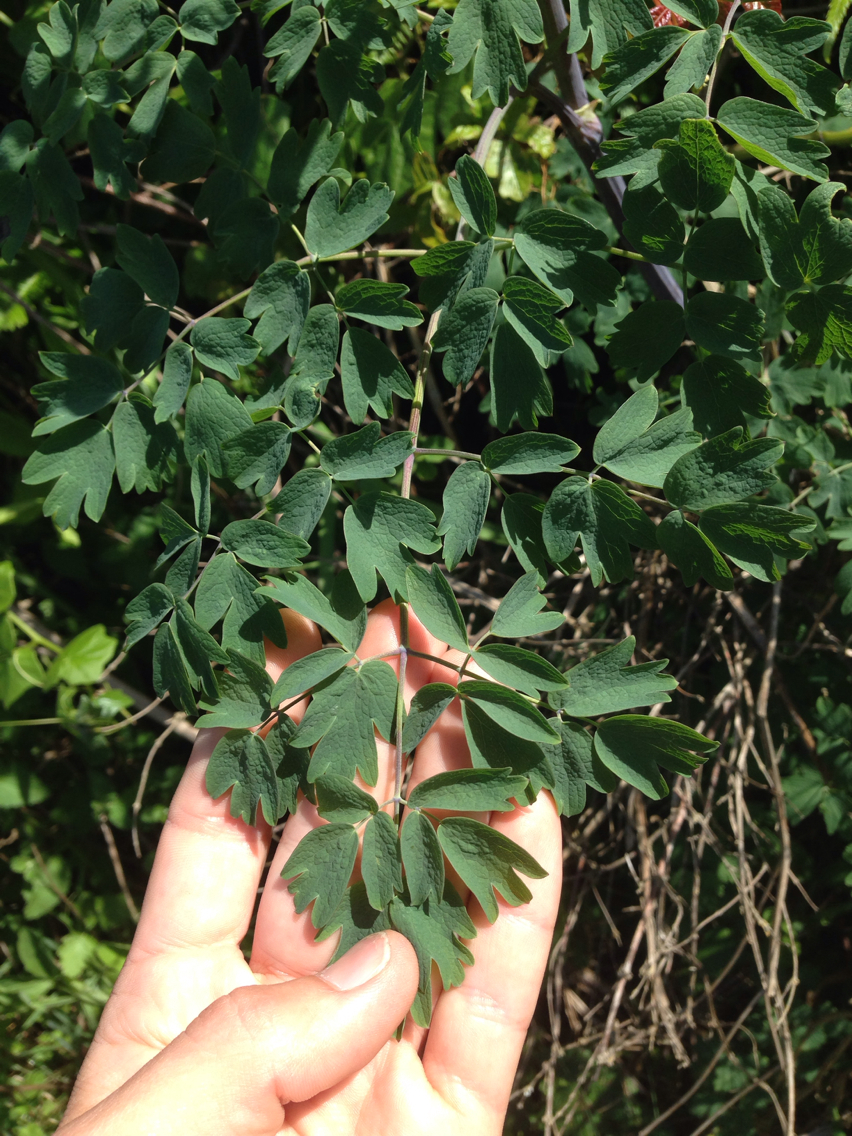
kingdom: Plantae
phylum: Tracheophyta
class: Magnoliopsida
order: Ranunculales
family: Ranunculaceae
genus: Thalictrum
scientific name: Thalictrum fendleri
